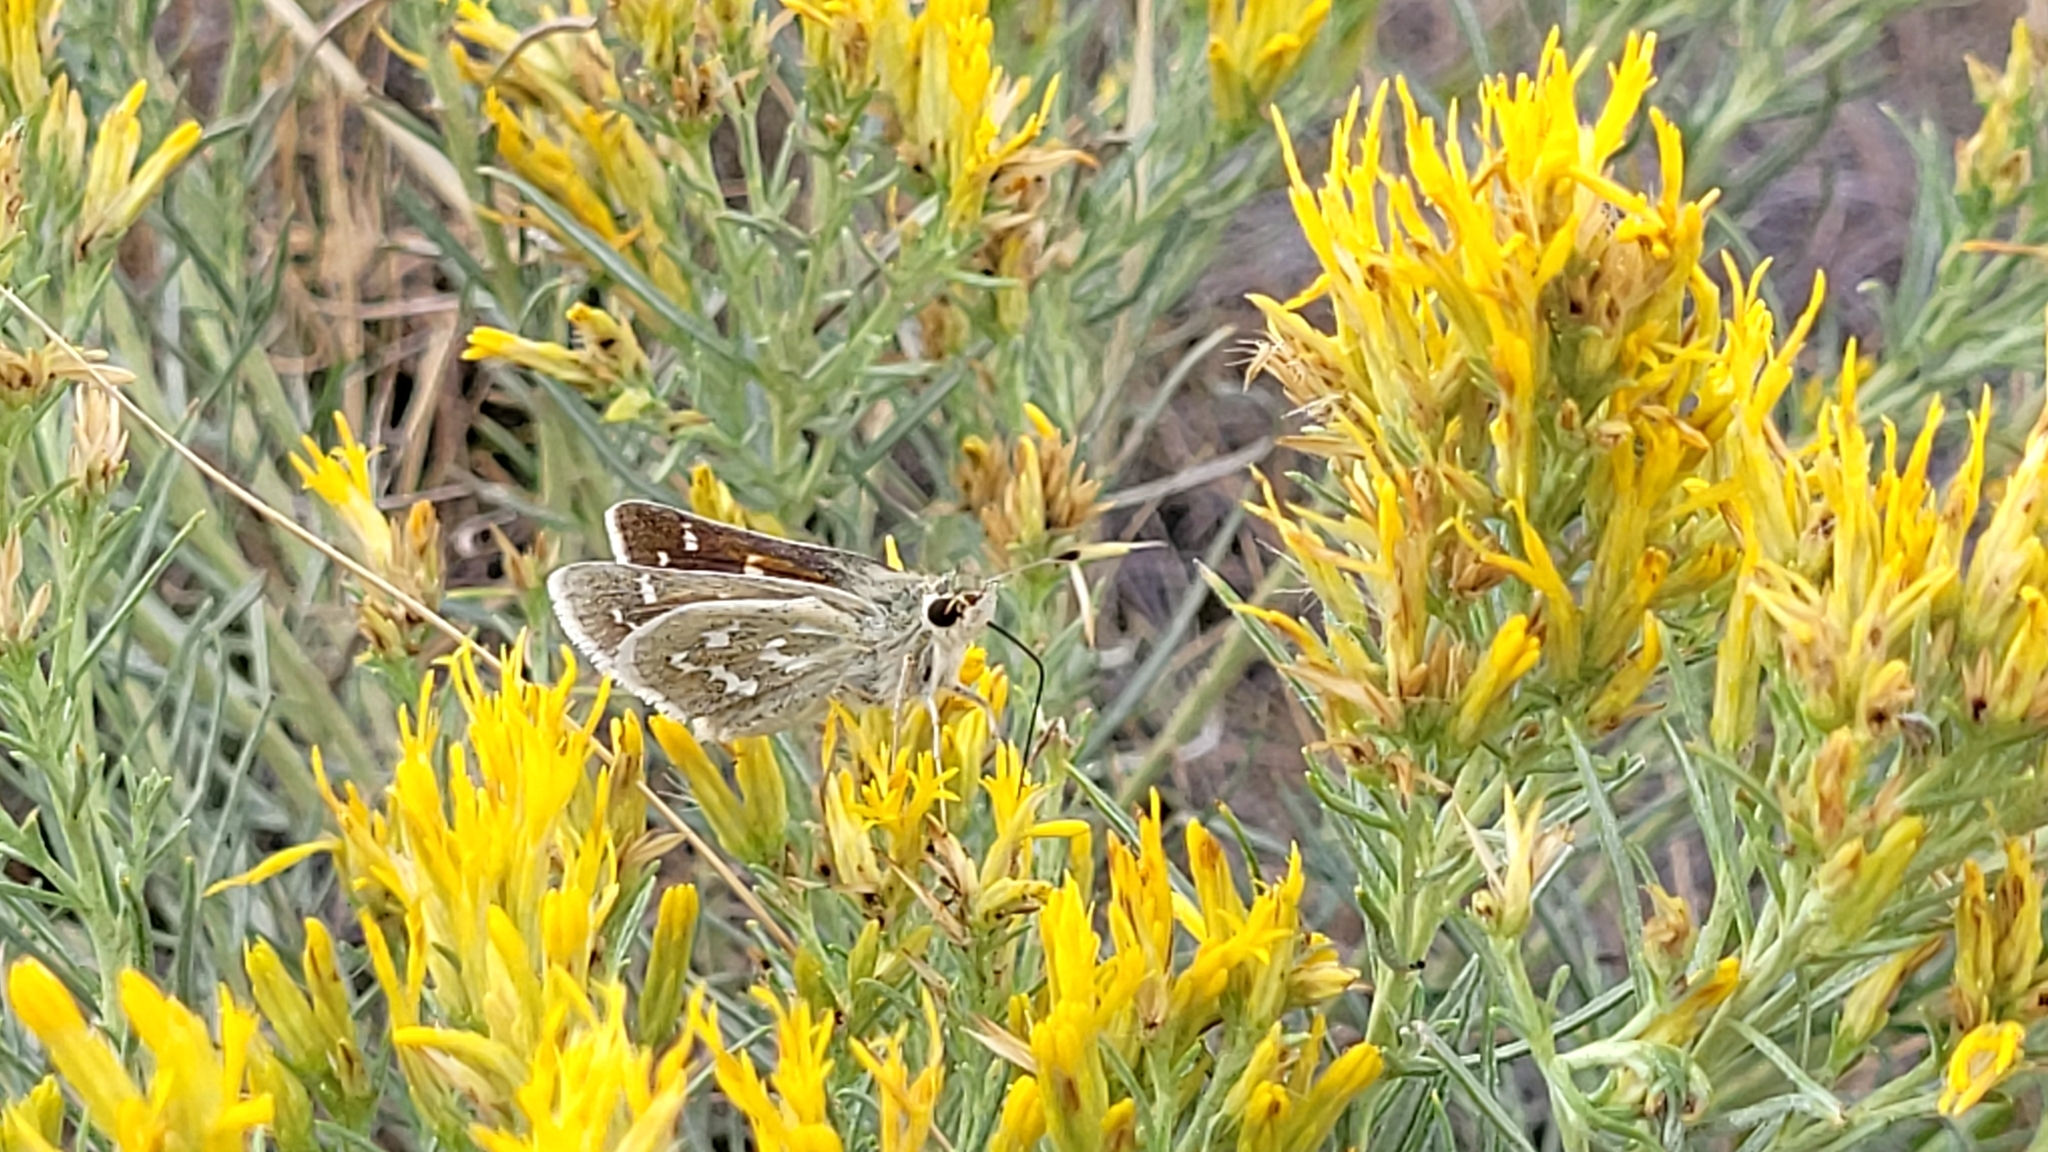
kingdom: Animalia
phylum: Arthropoda
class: Insecta
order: Lepidoptera
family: Hesperiidae
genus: Hesperia
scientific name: Hesperia comma
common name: Common branded skipper
